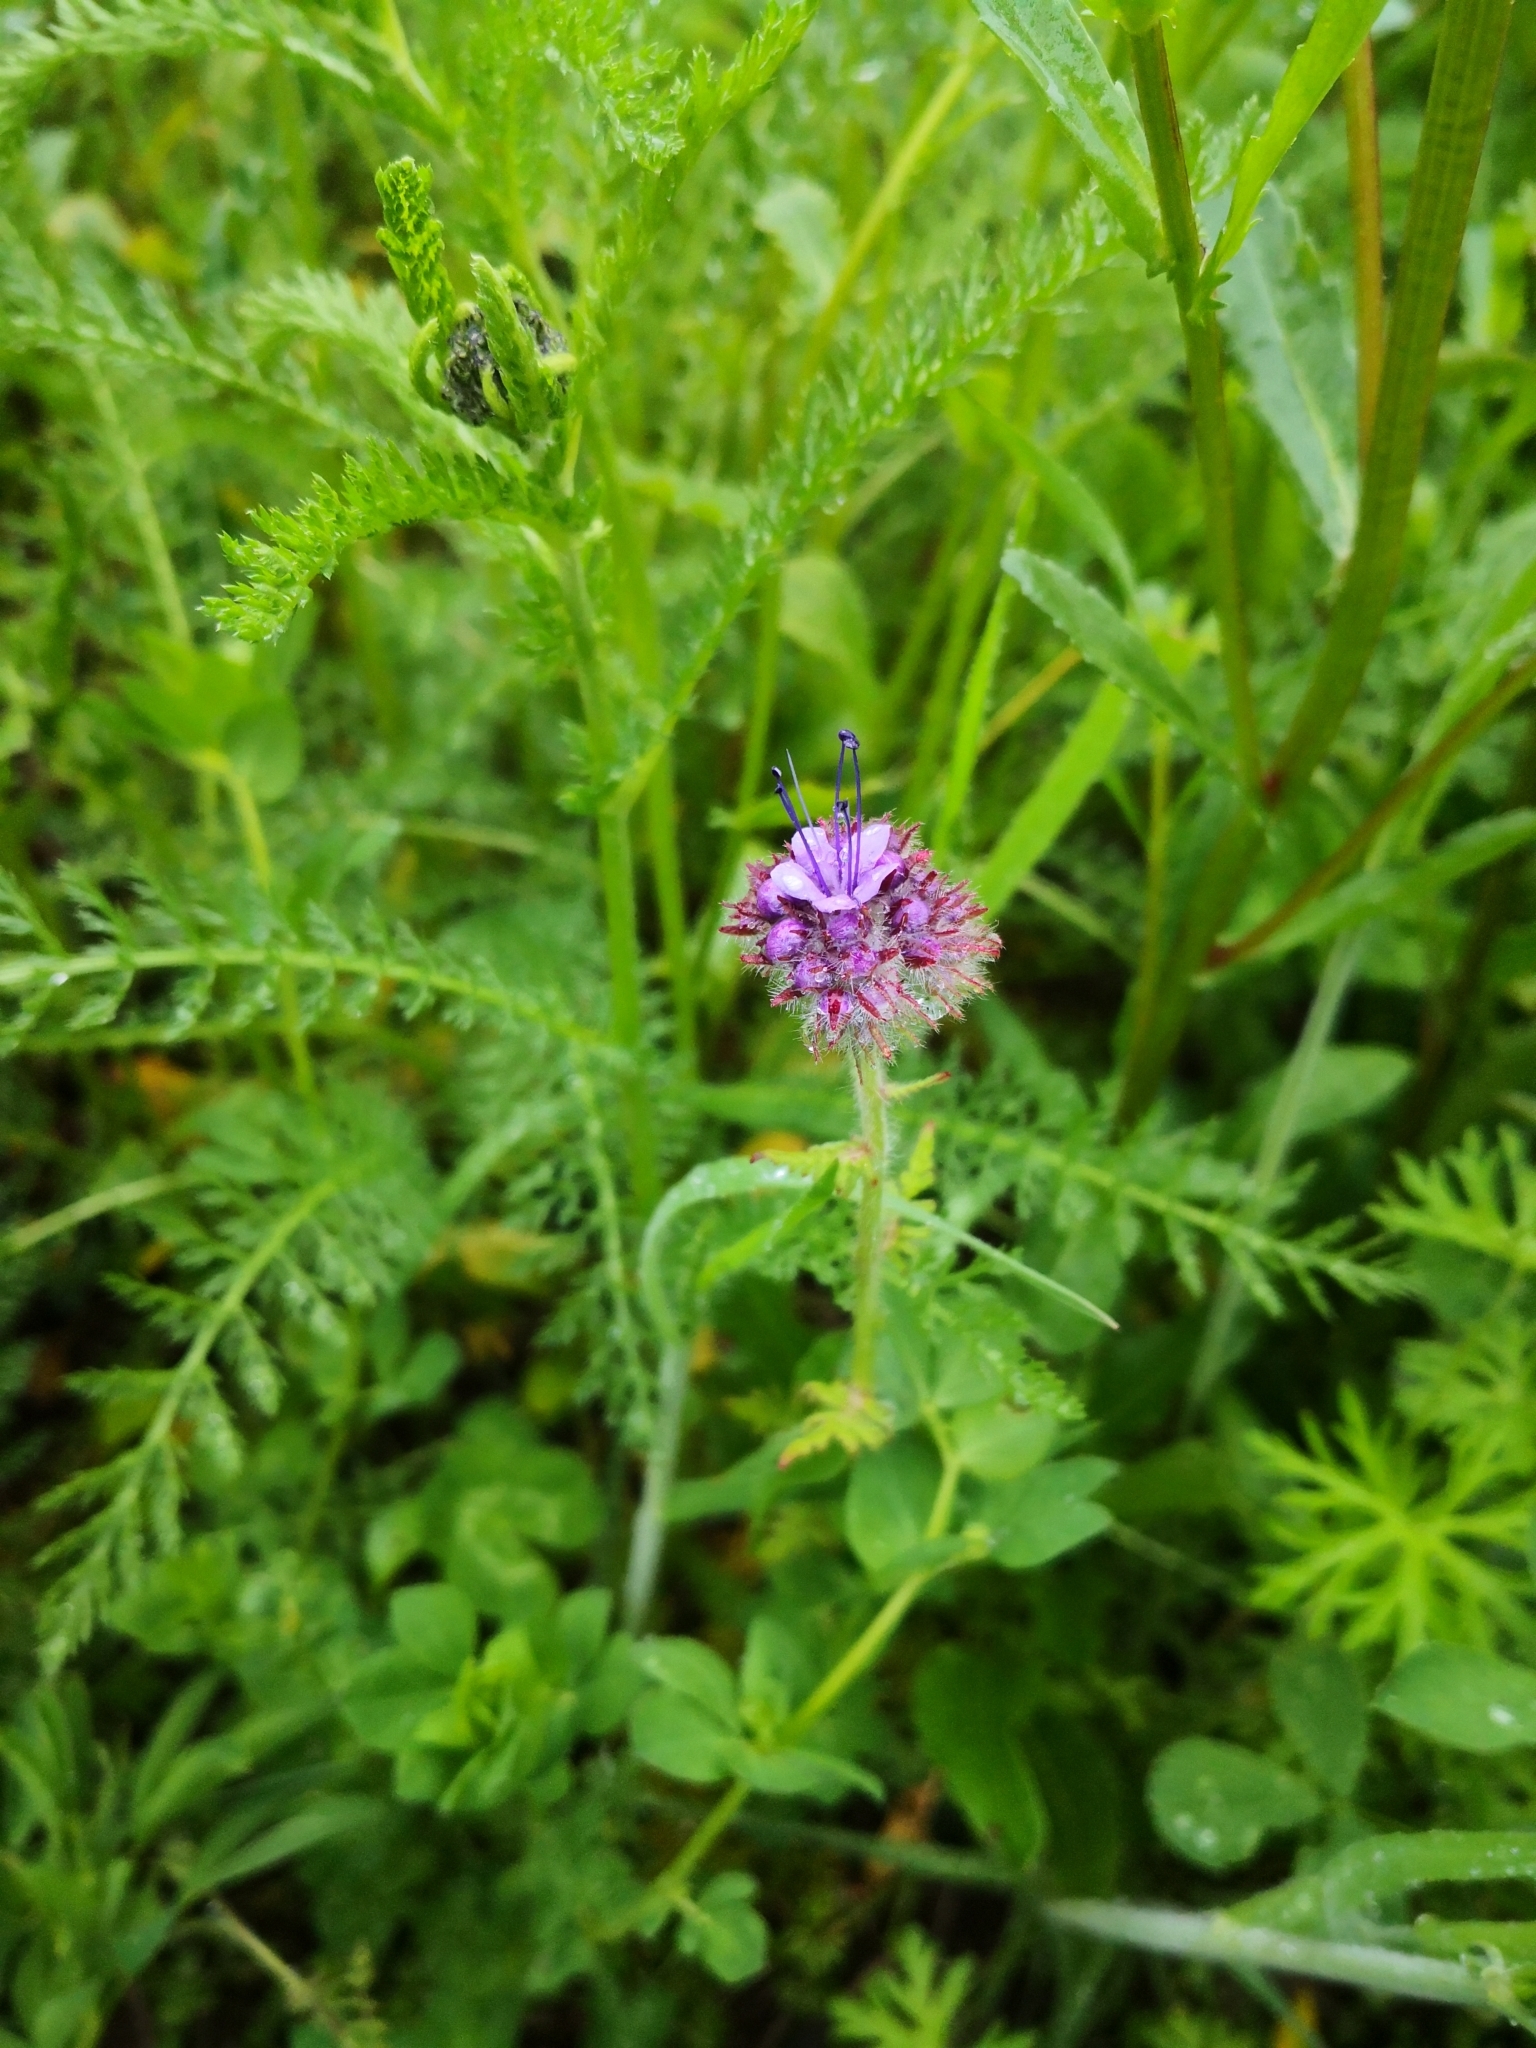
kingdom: Plantae
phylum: Tracheophyta
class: Magnoliopsida
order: Boraginales
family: Hydrophyllaceae
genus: Phacelia
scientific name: Phacelia tanacetifolia
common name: Phacelia
